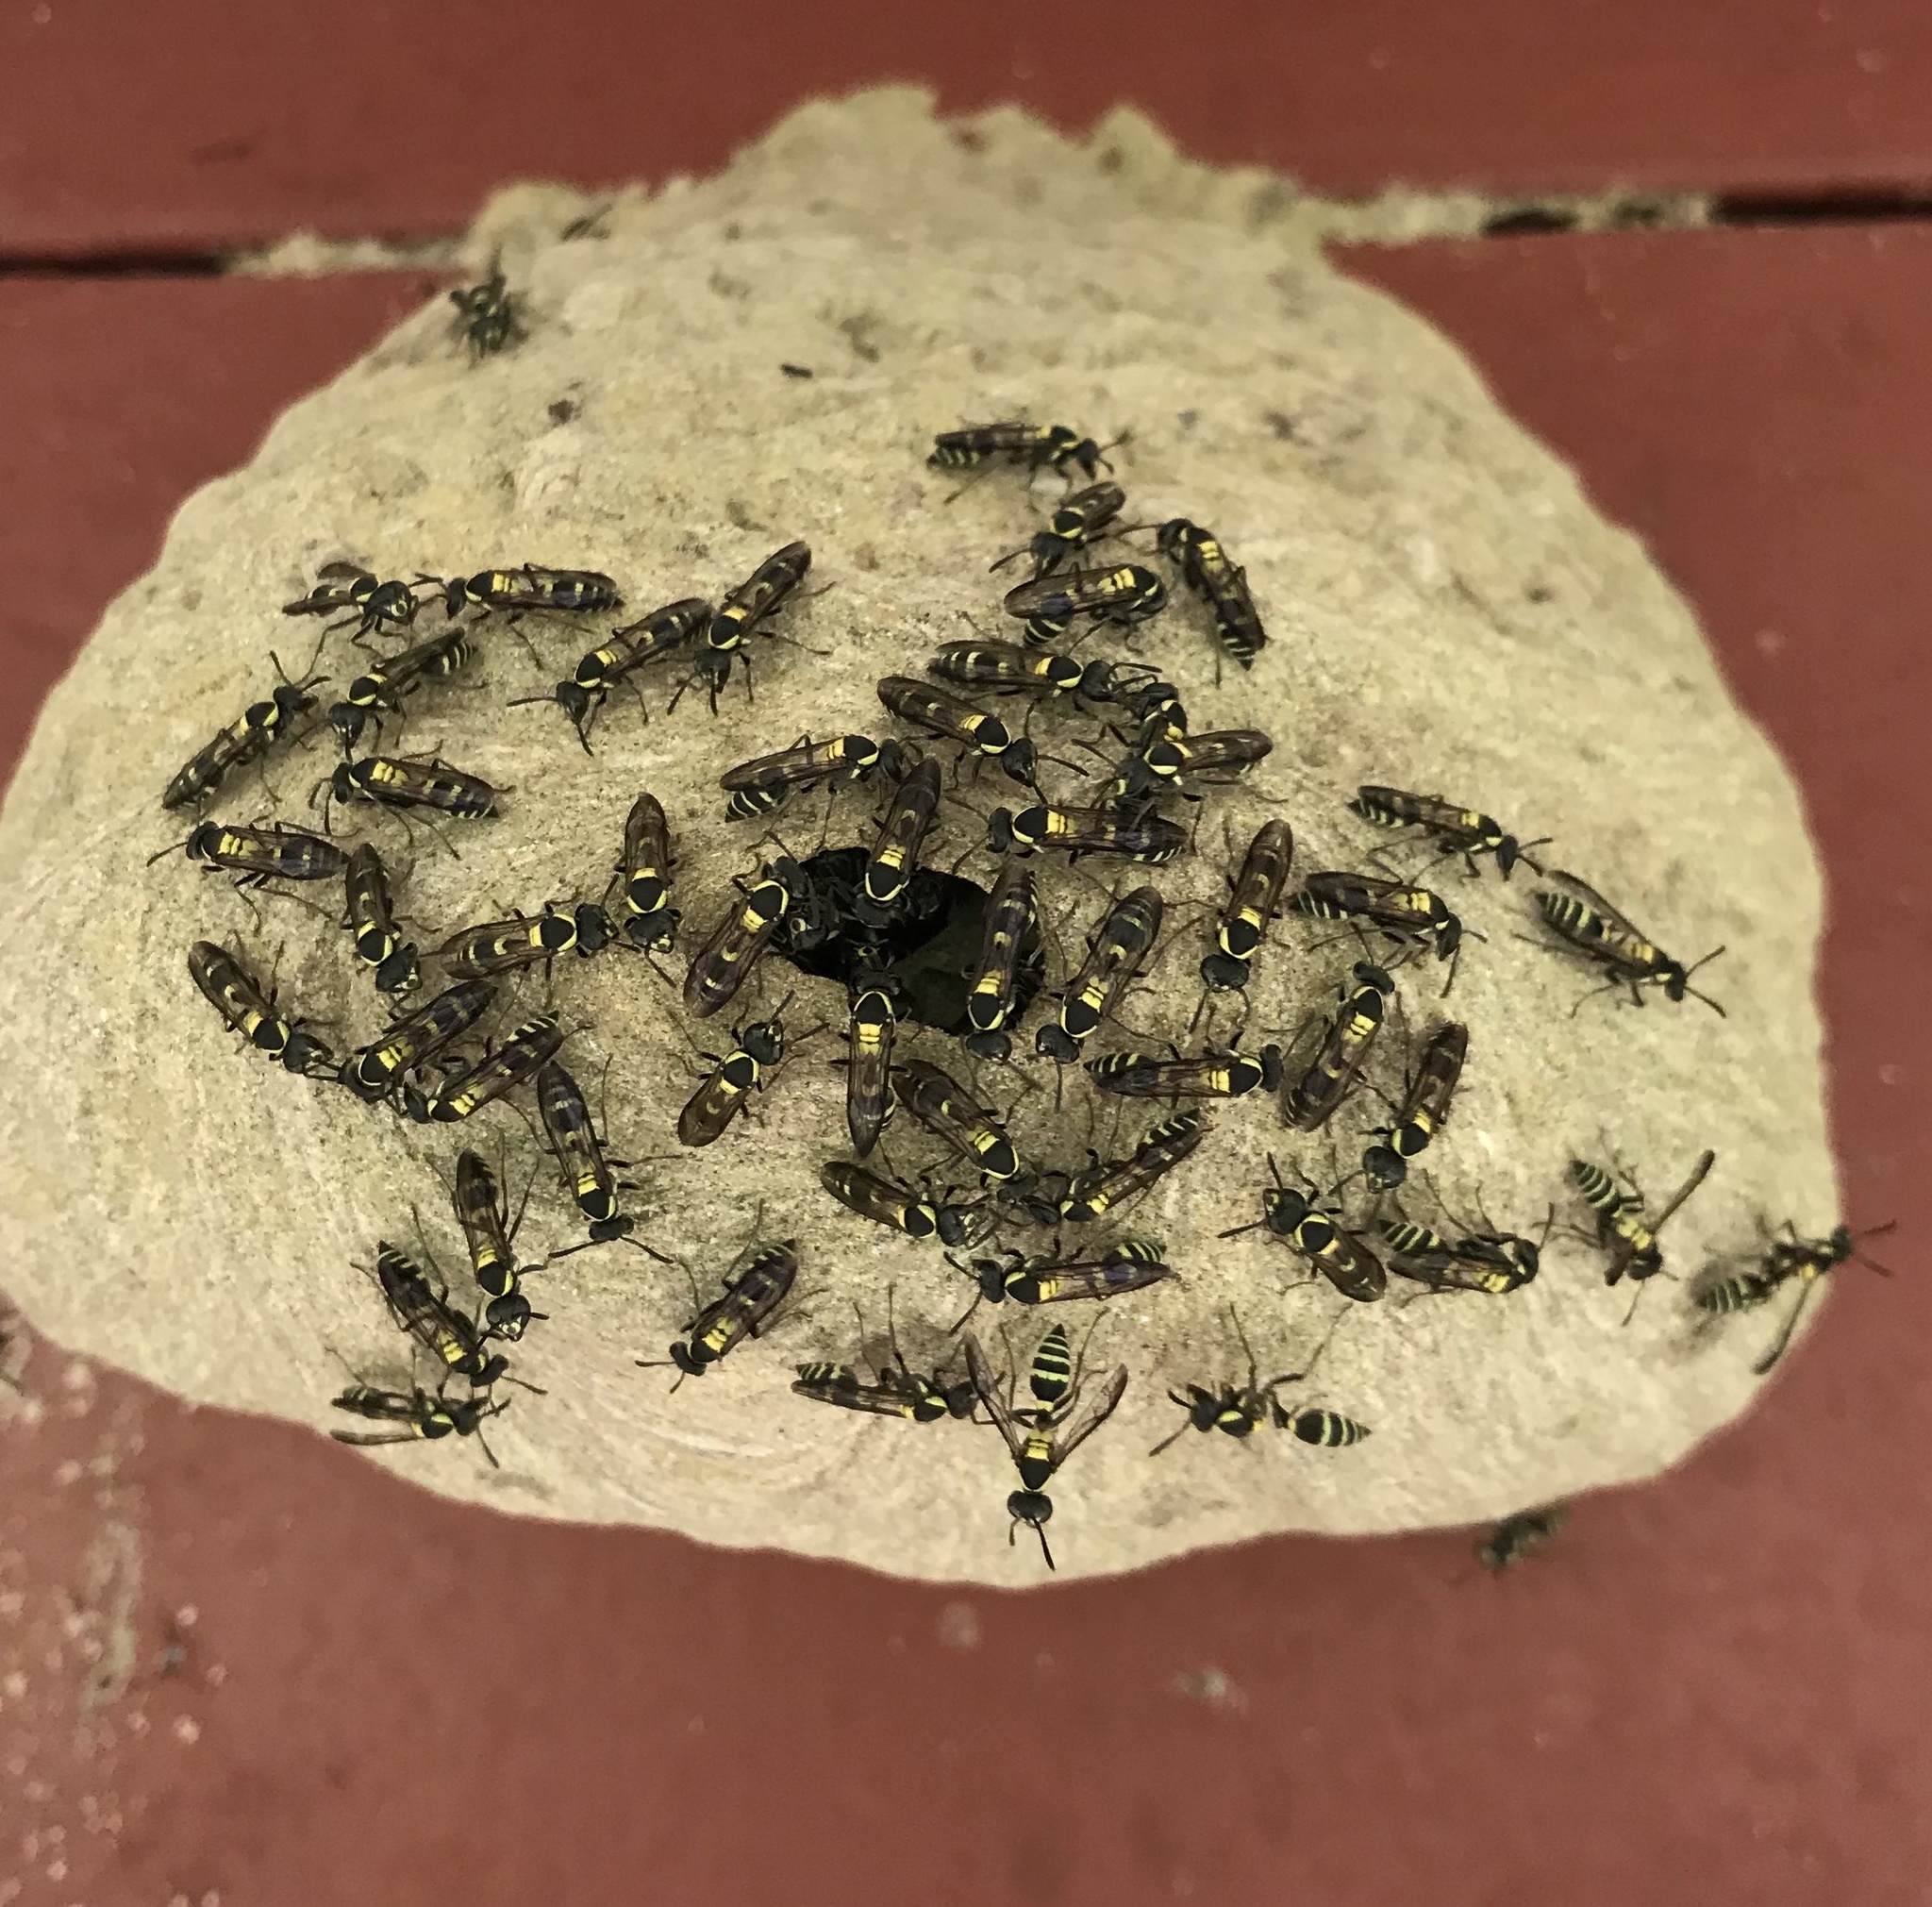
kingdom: Animalia
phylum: Arthropoda
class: Insecta
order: Hymenoptera
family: Eumenidae
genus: Polybia
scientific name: Polybia occidentalis
